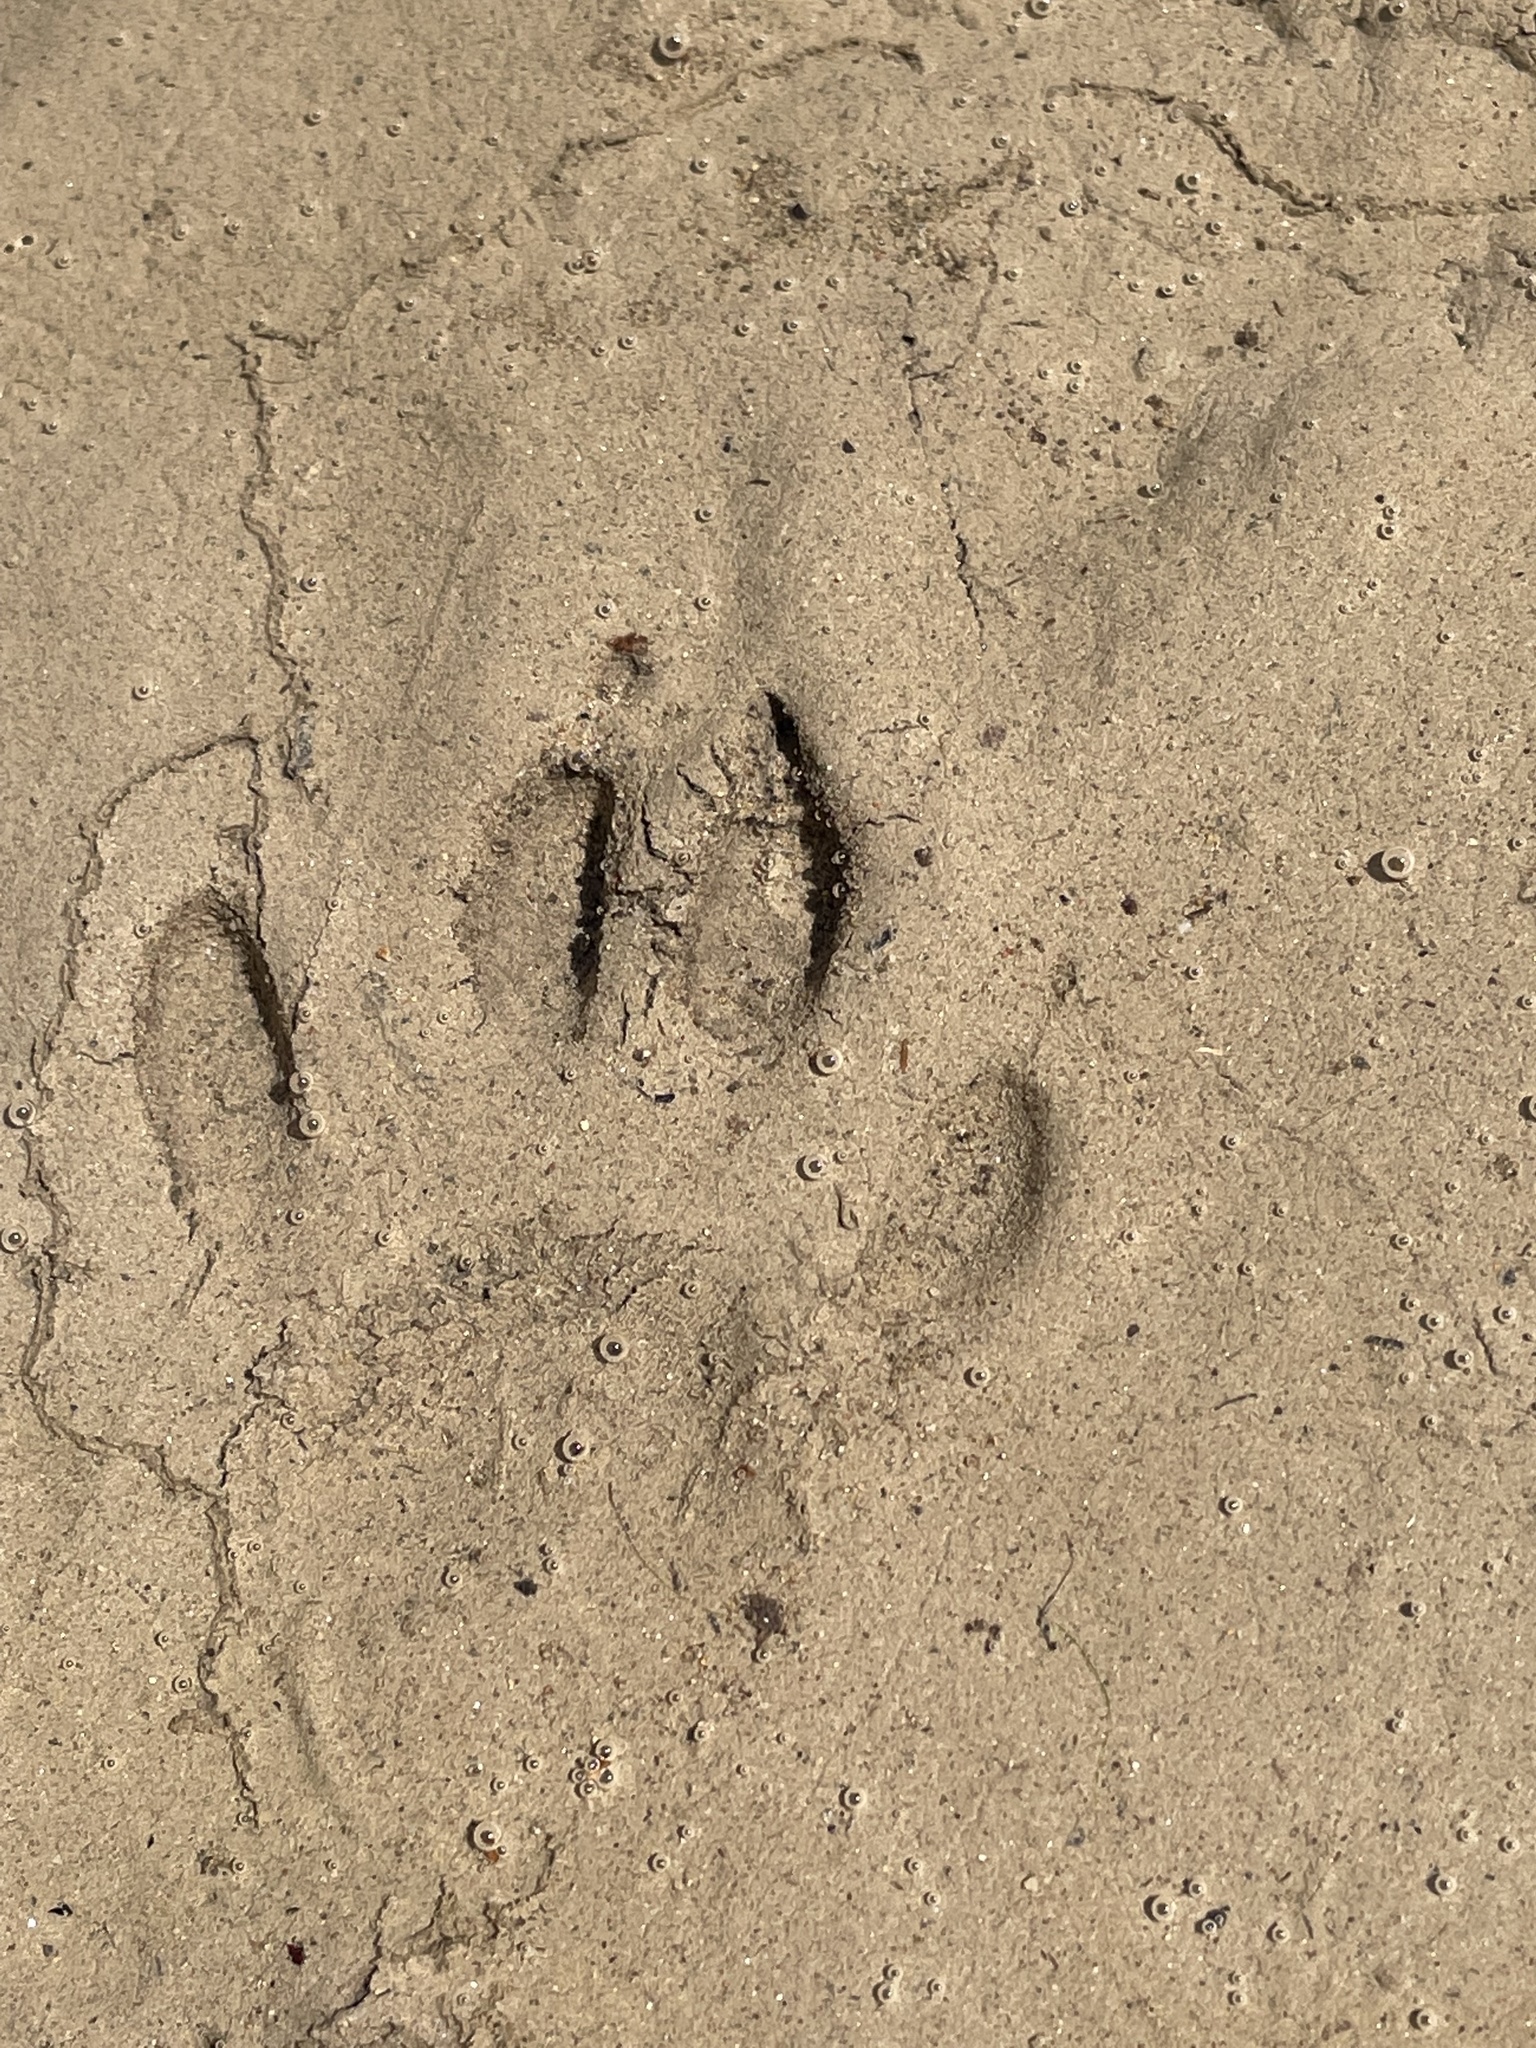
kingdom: Animalia
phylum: Chordata
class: Mammalia
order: Carnivora
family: Procyonidae
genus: Procyon
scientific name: Procyon lotor
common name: Raccoon
